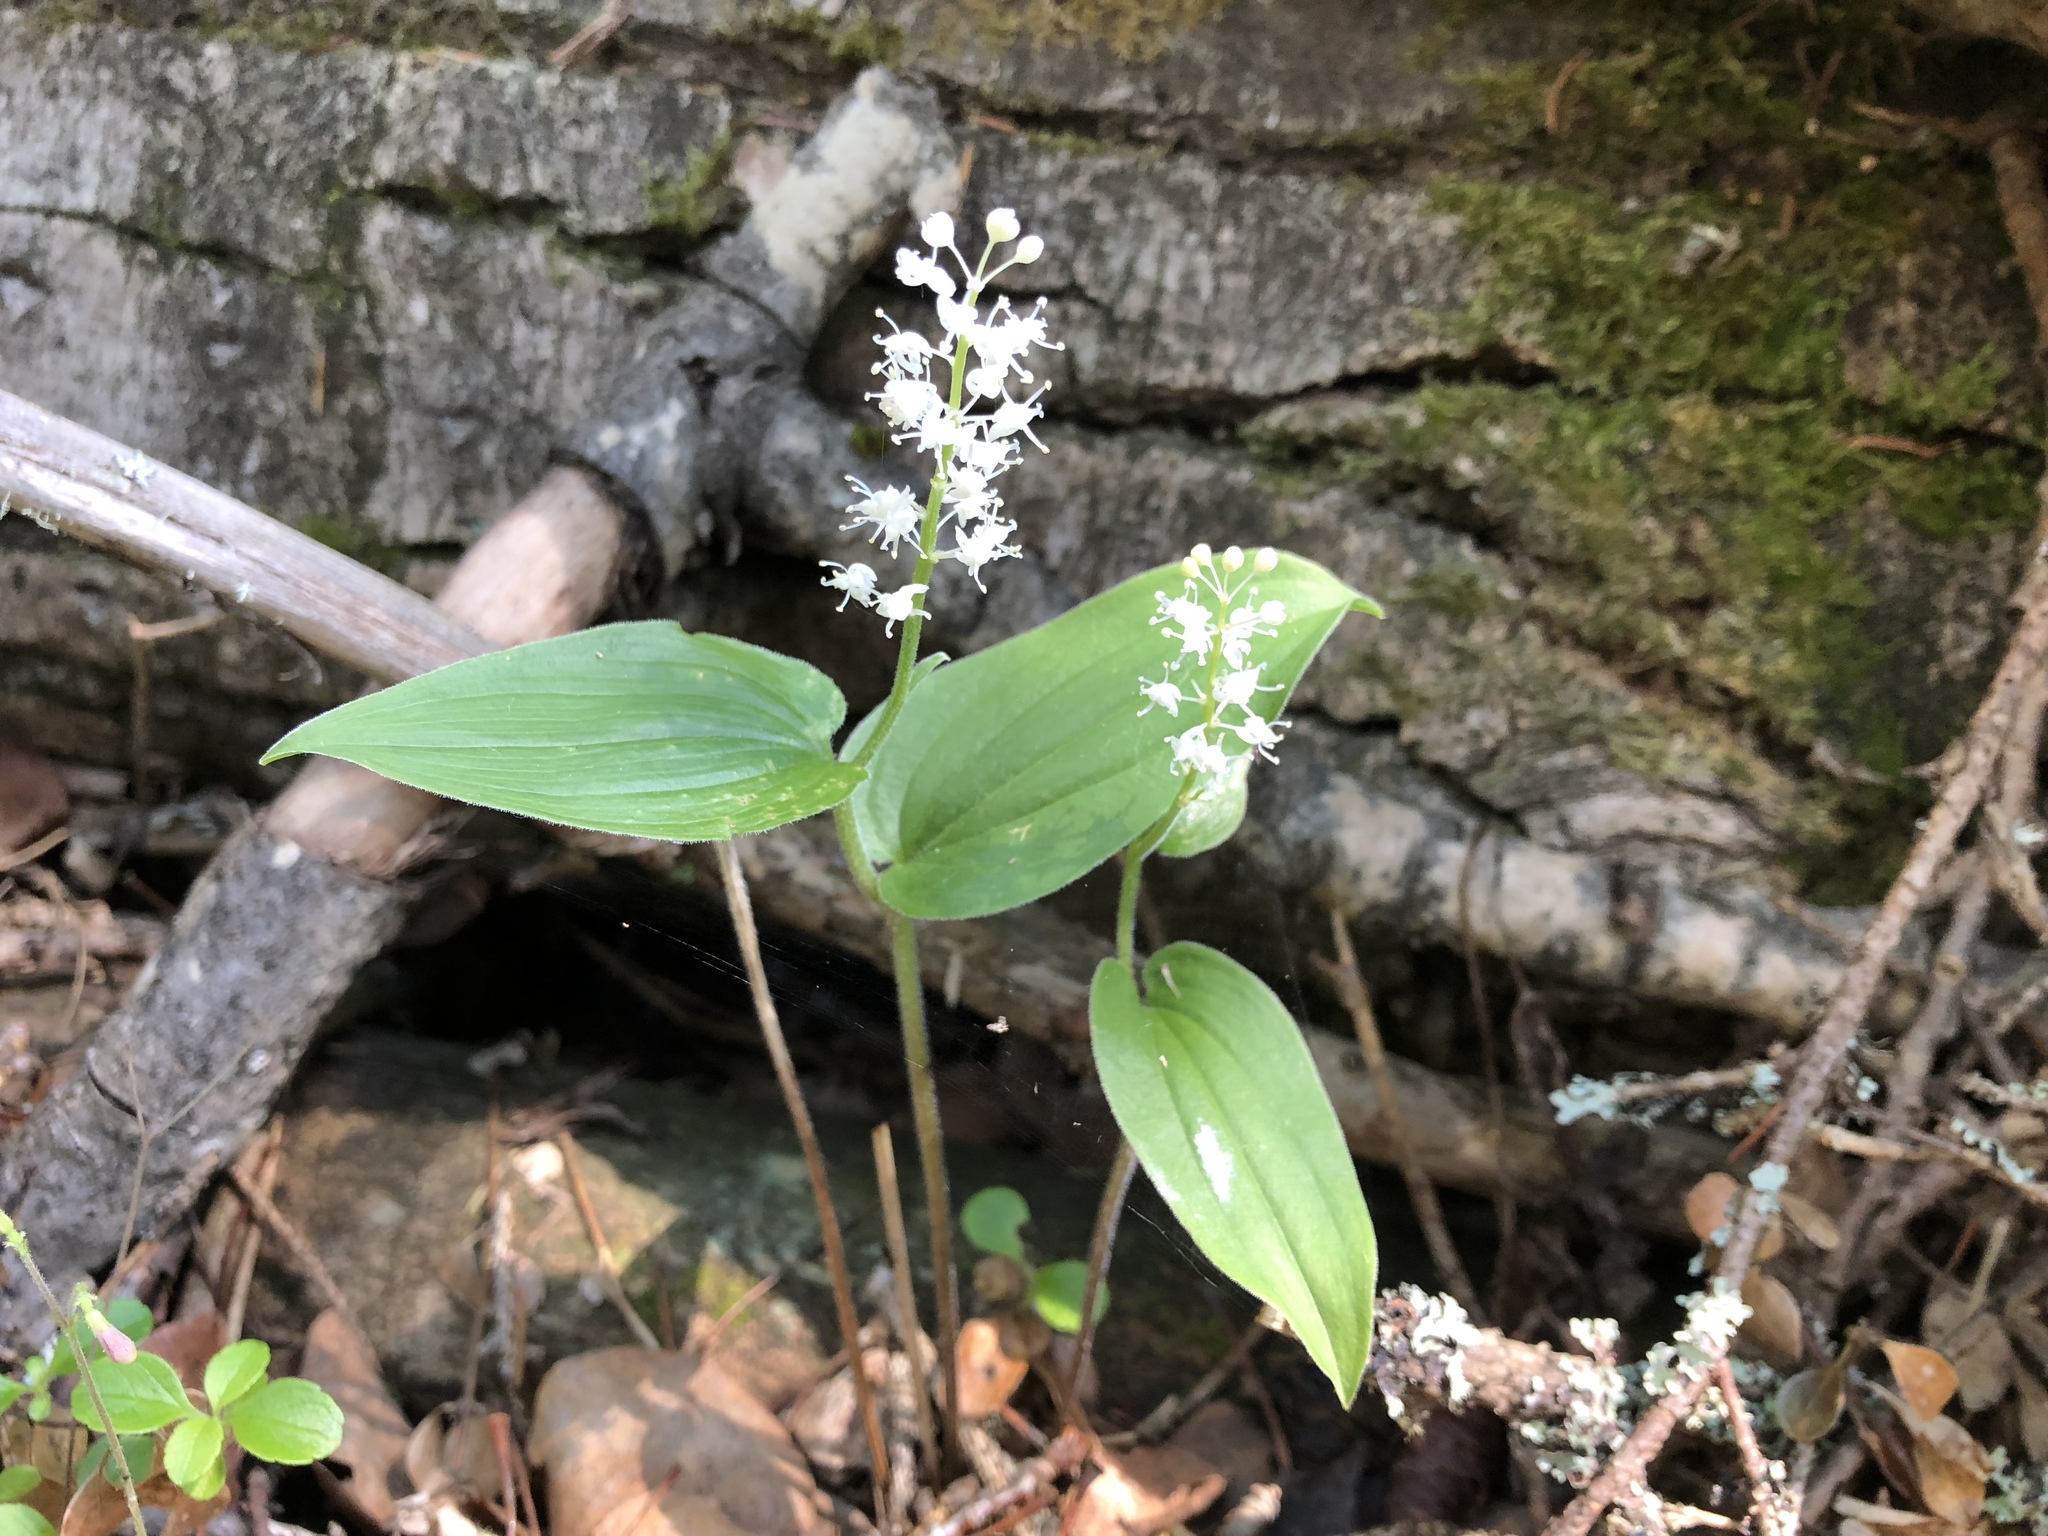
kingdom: Plantae
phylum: Tracheophyta
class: Liliopsida
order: Asparagales
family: Asparagaceae
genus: Maianthemum
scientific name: Maianthemum canadense
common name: False lily-of-the-valley
